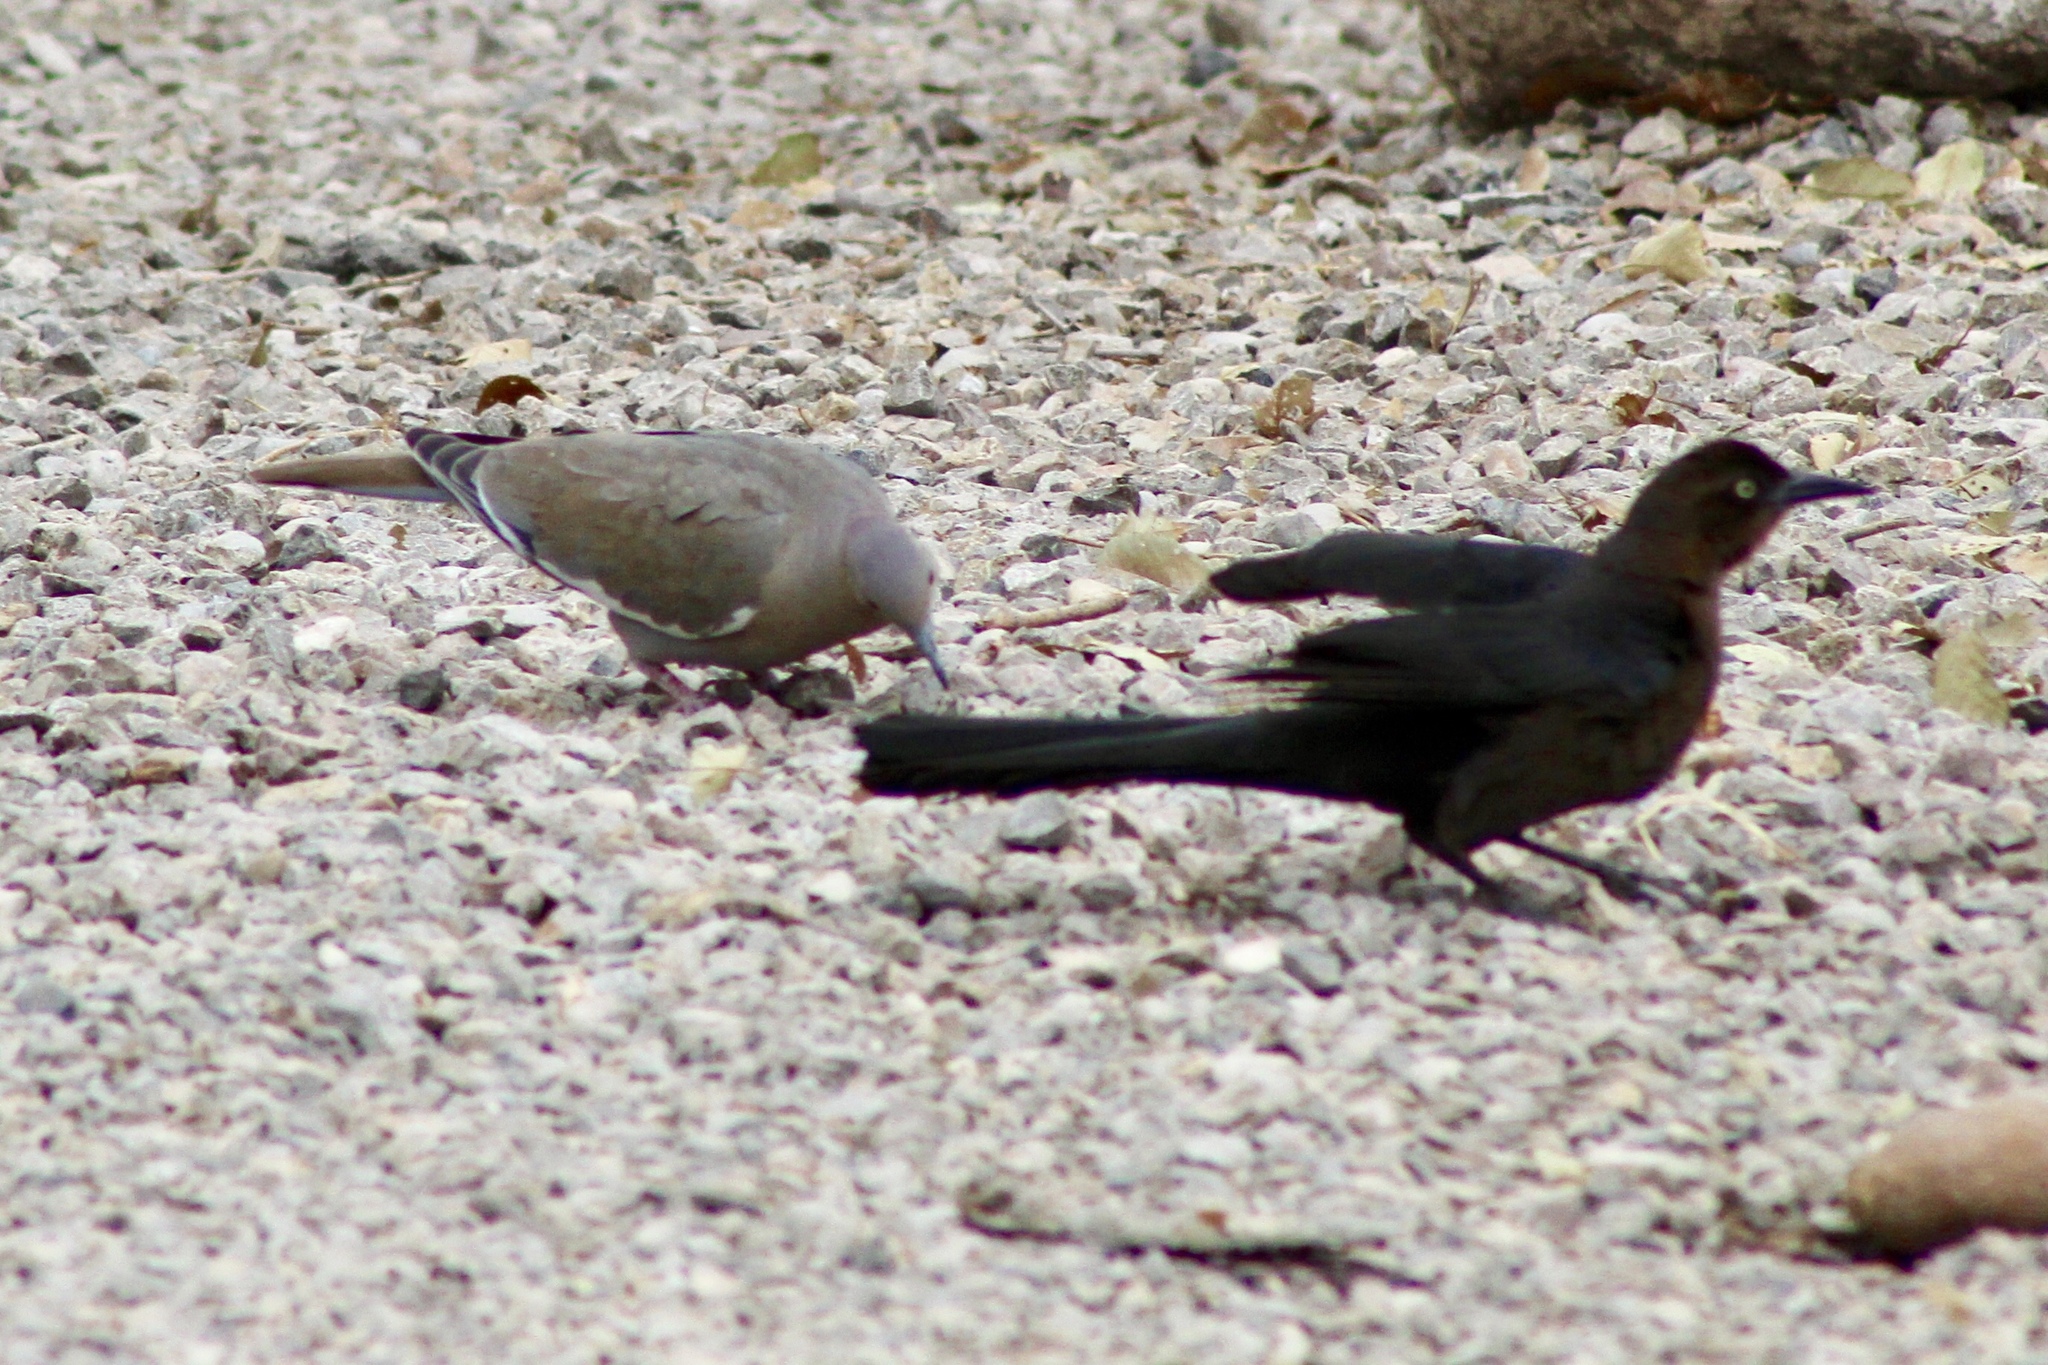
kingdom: Animalia
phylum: Chordata
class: Aves
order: Passeriformes
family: Icteridae
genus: Quiscalus
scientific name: Quiscalus mexicanus
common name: Great-tailed grackle
